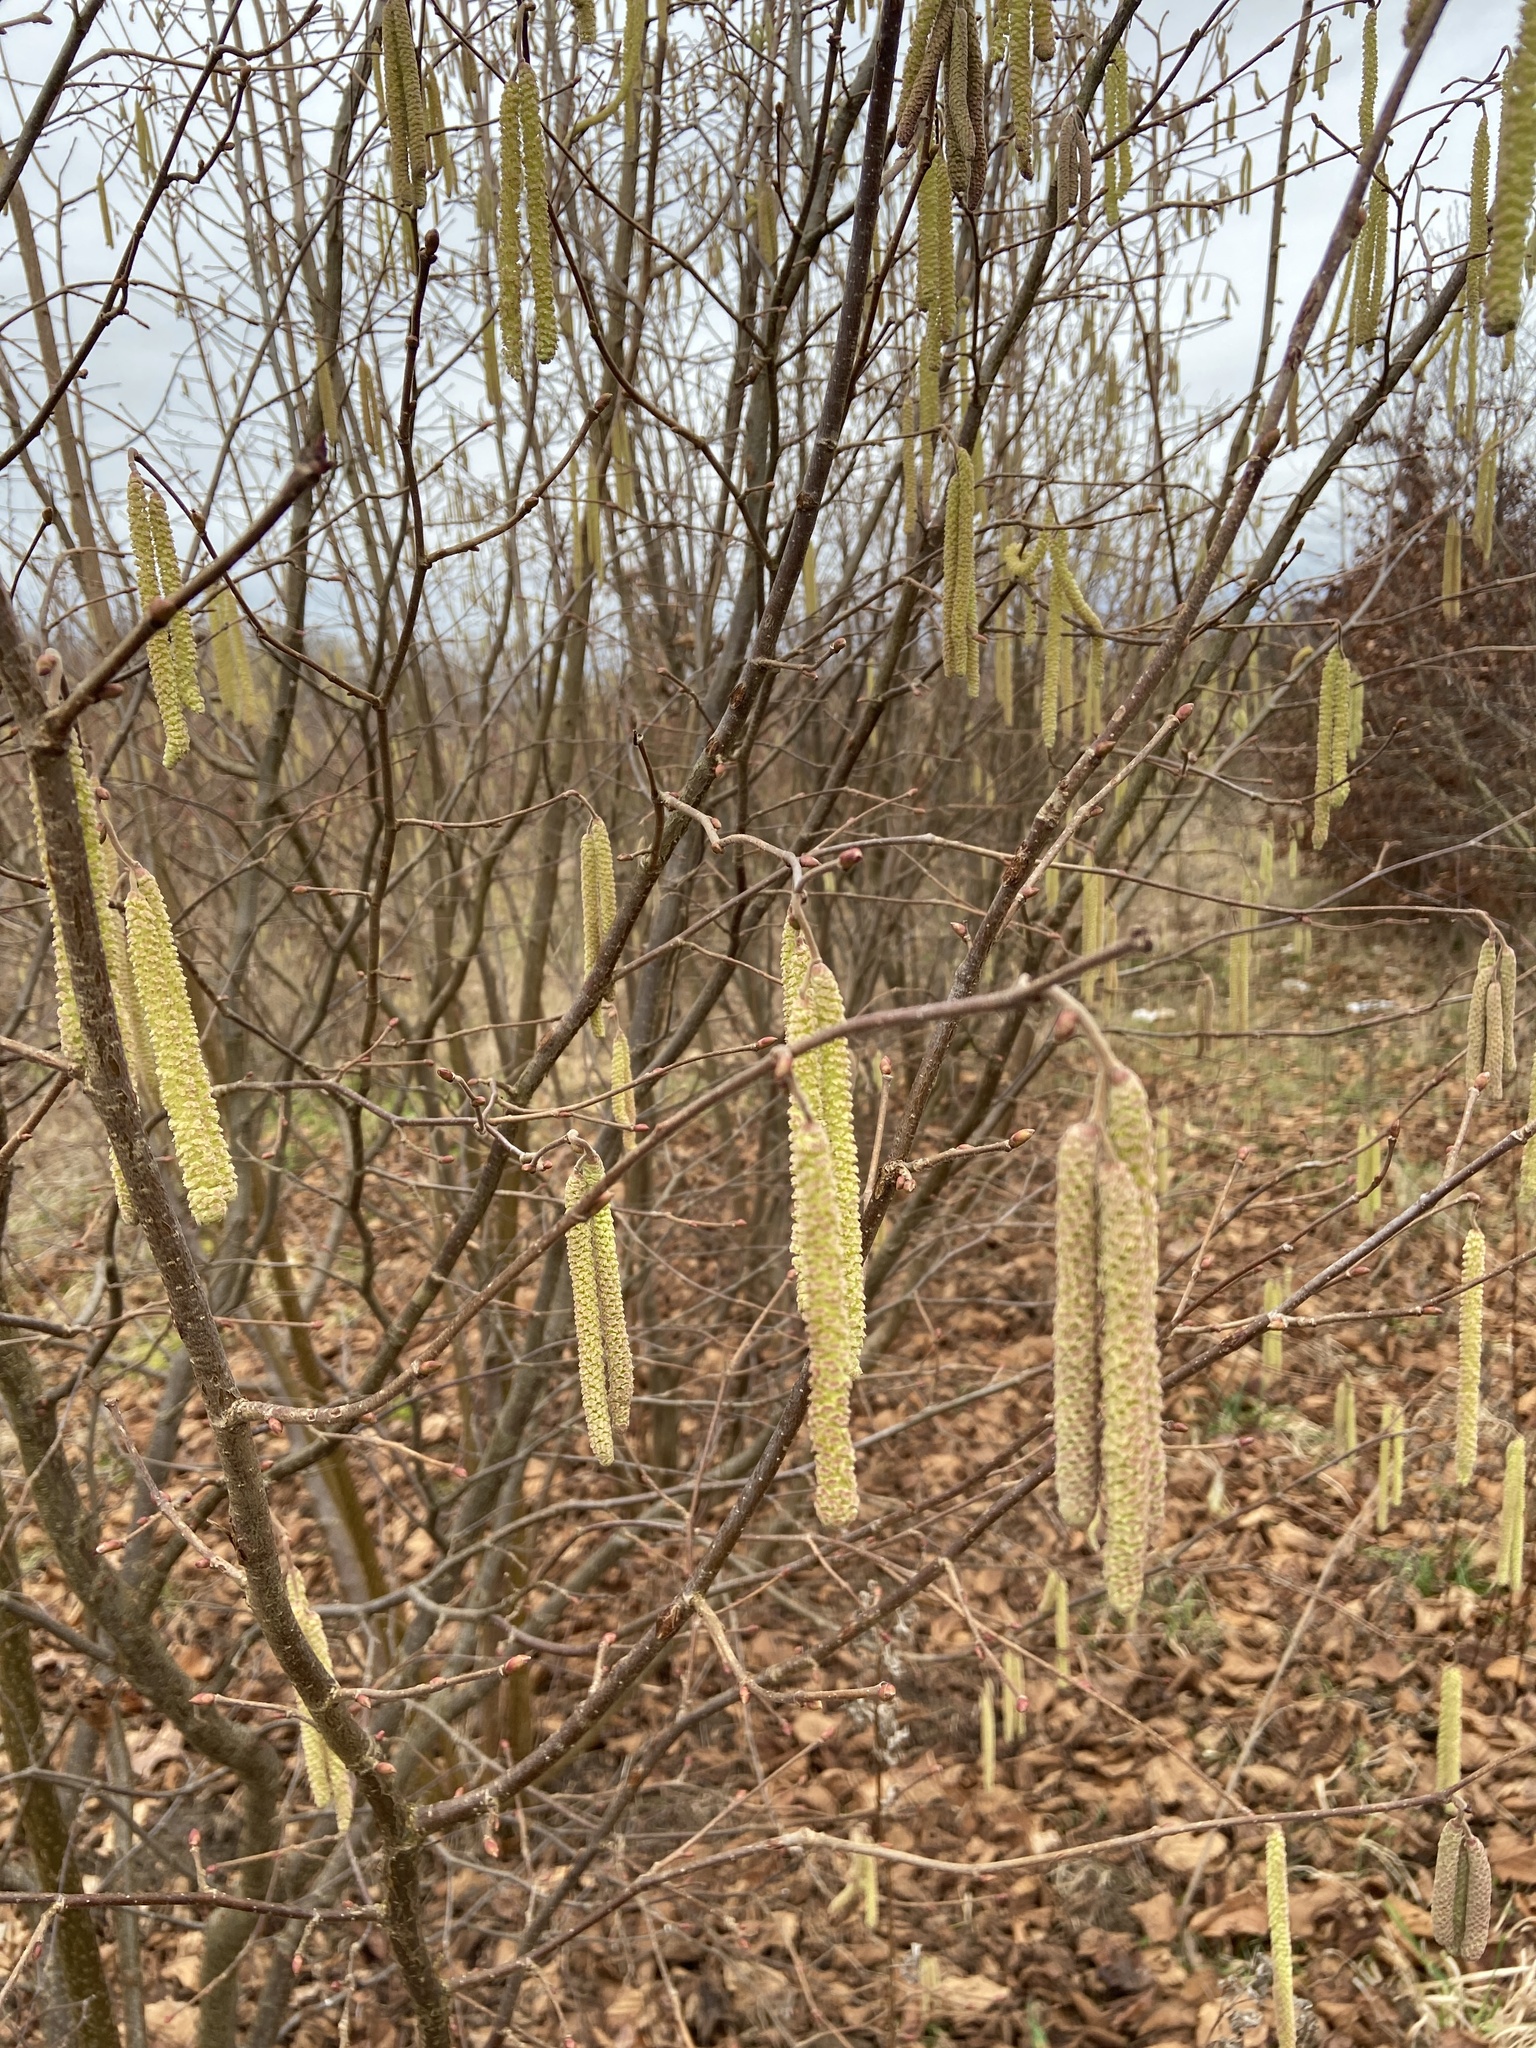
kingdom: Plantae
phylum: Tracheophyta
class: Magnoliopsida
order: Fagales
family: Betulaceae
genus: Corylus
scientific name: Corylus avellana
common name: European hazel
